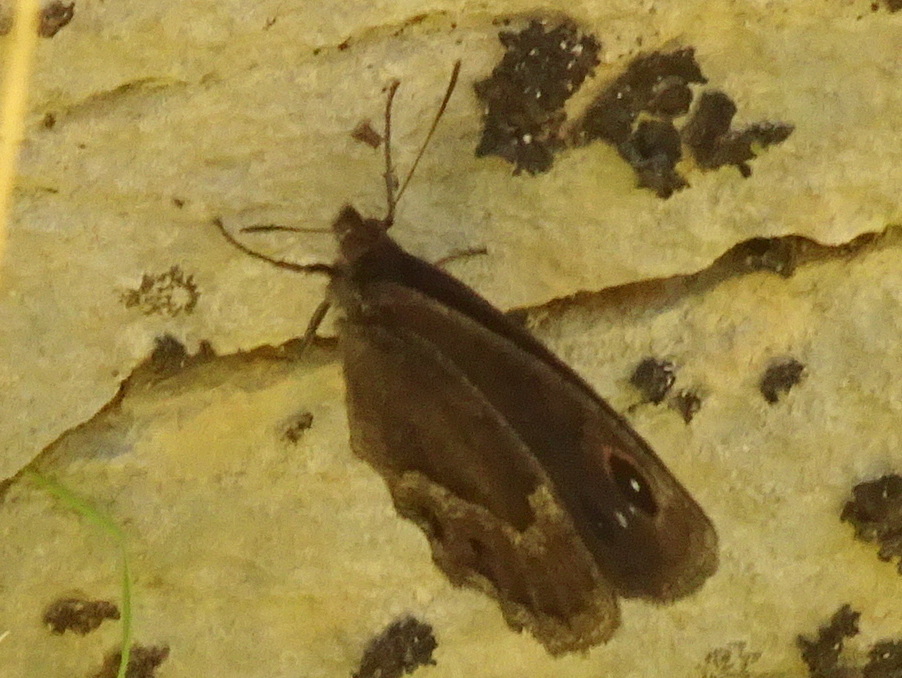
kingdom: Animalia
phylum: Arthropoda
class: Insecta
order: Lepidoptera
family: Nymphalidae
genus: Satyrus
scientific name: Satyrus ferula
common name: Great sooty satyr
